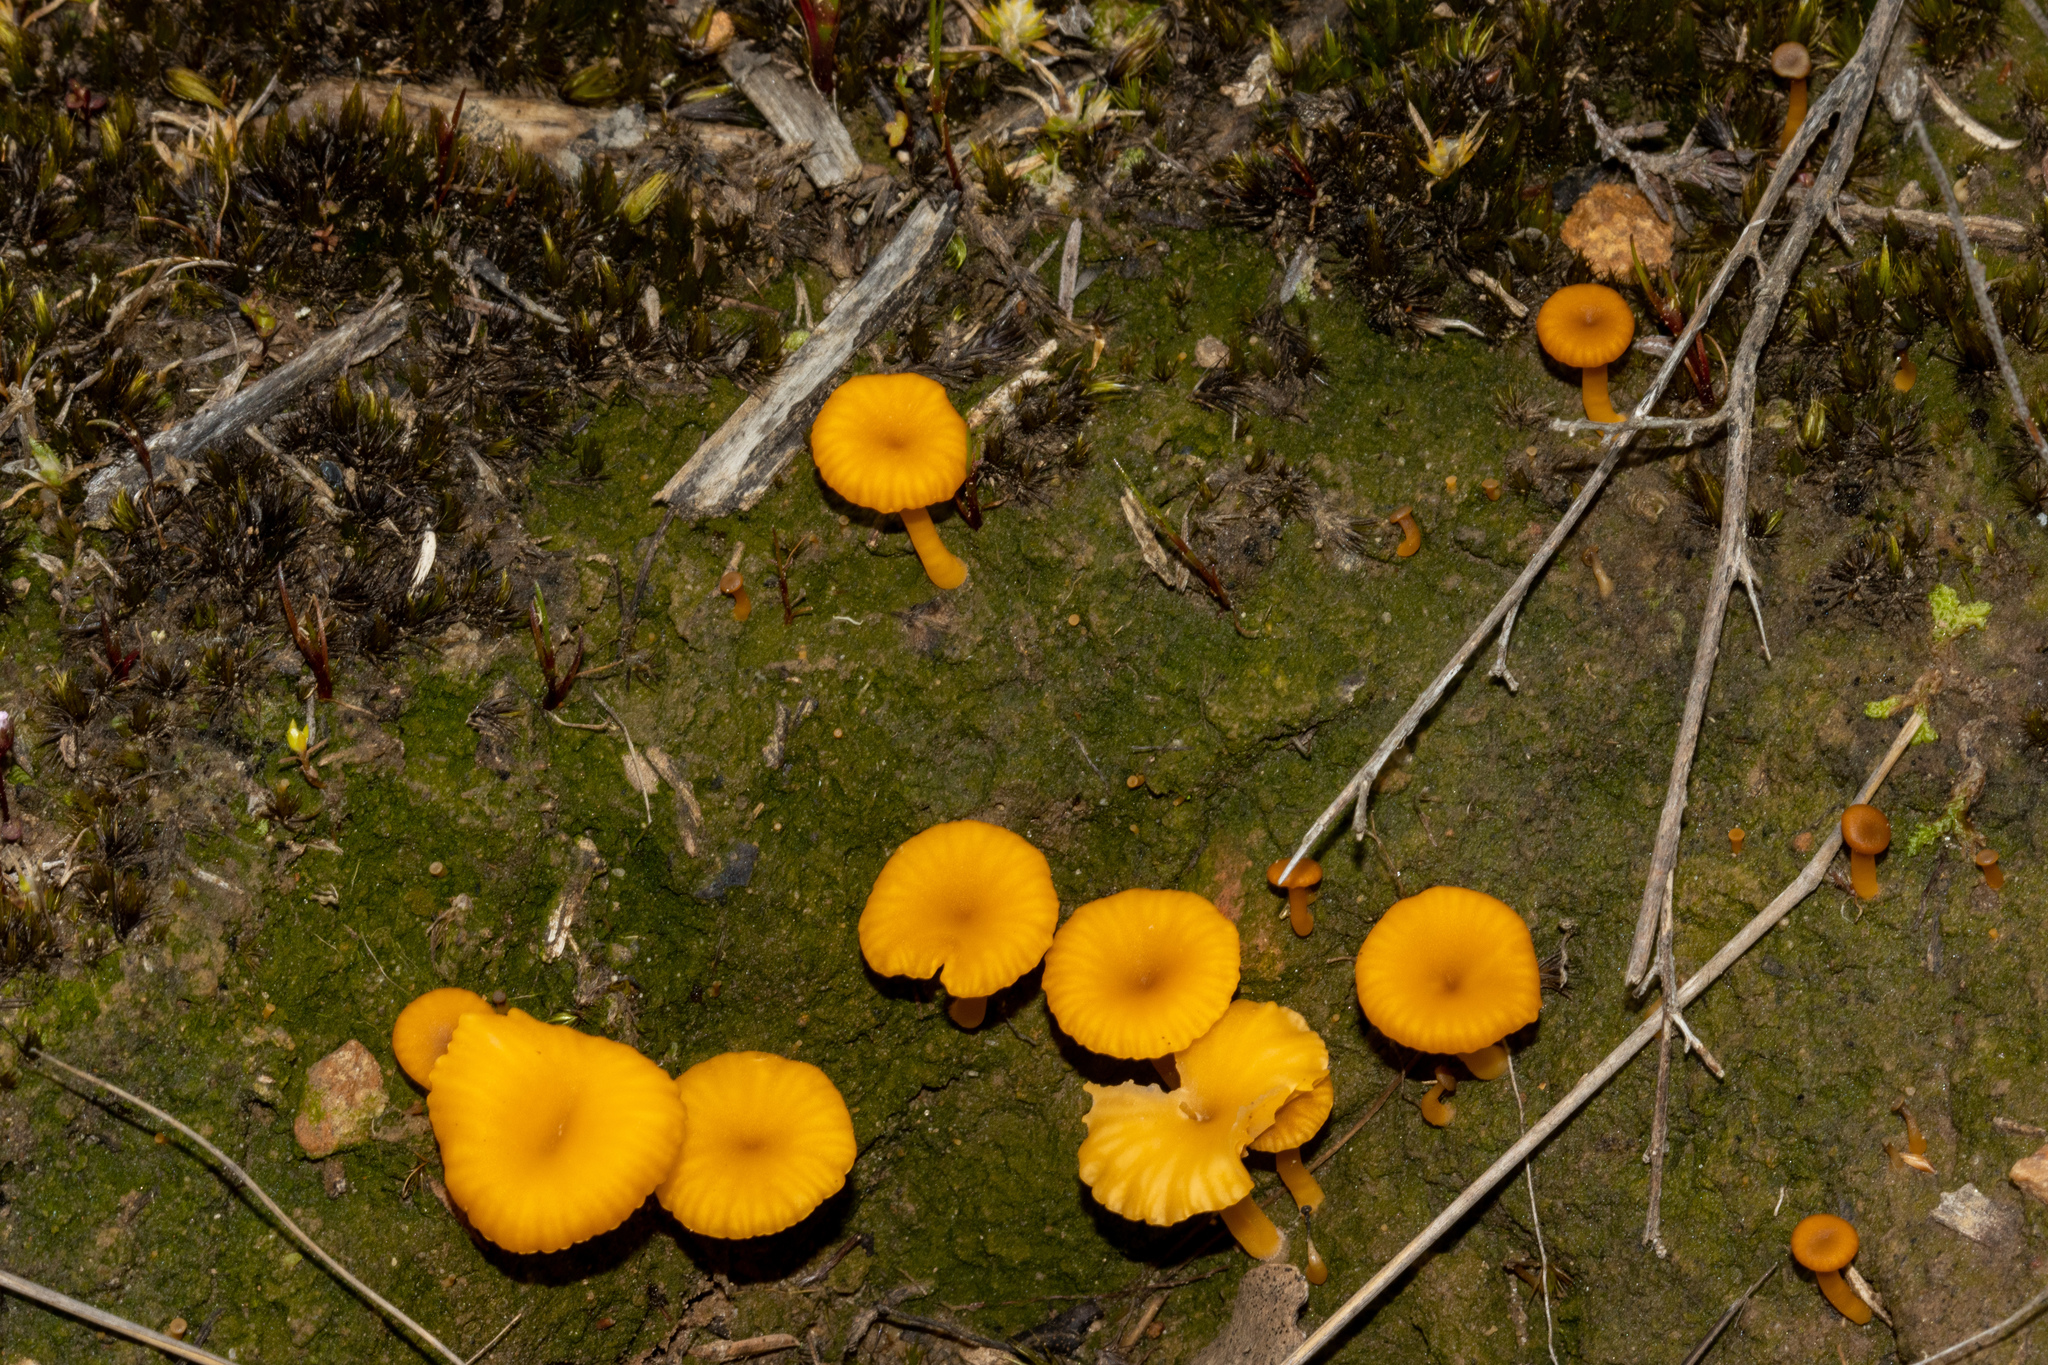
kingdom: Fungi
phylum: Basidiomycota
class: Agaricomycetes
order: Agaricales
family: Hygrophoraceae
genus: Lichenomphalia
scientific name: Lichenomphalia chromacea
